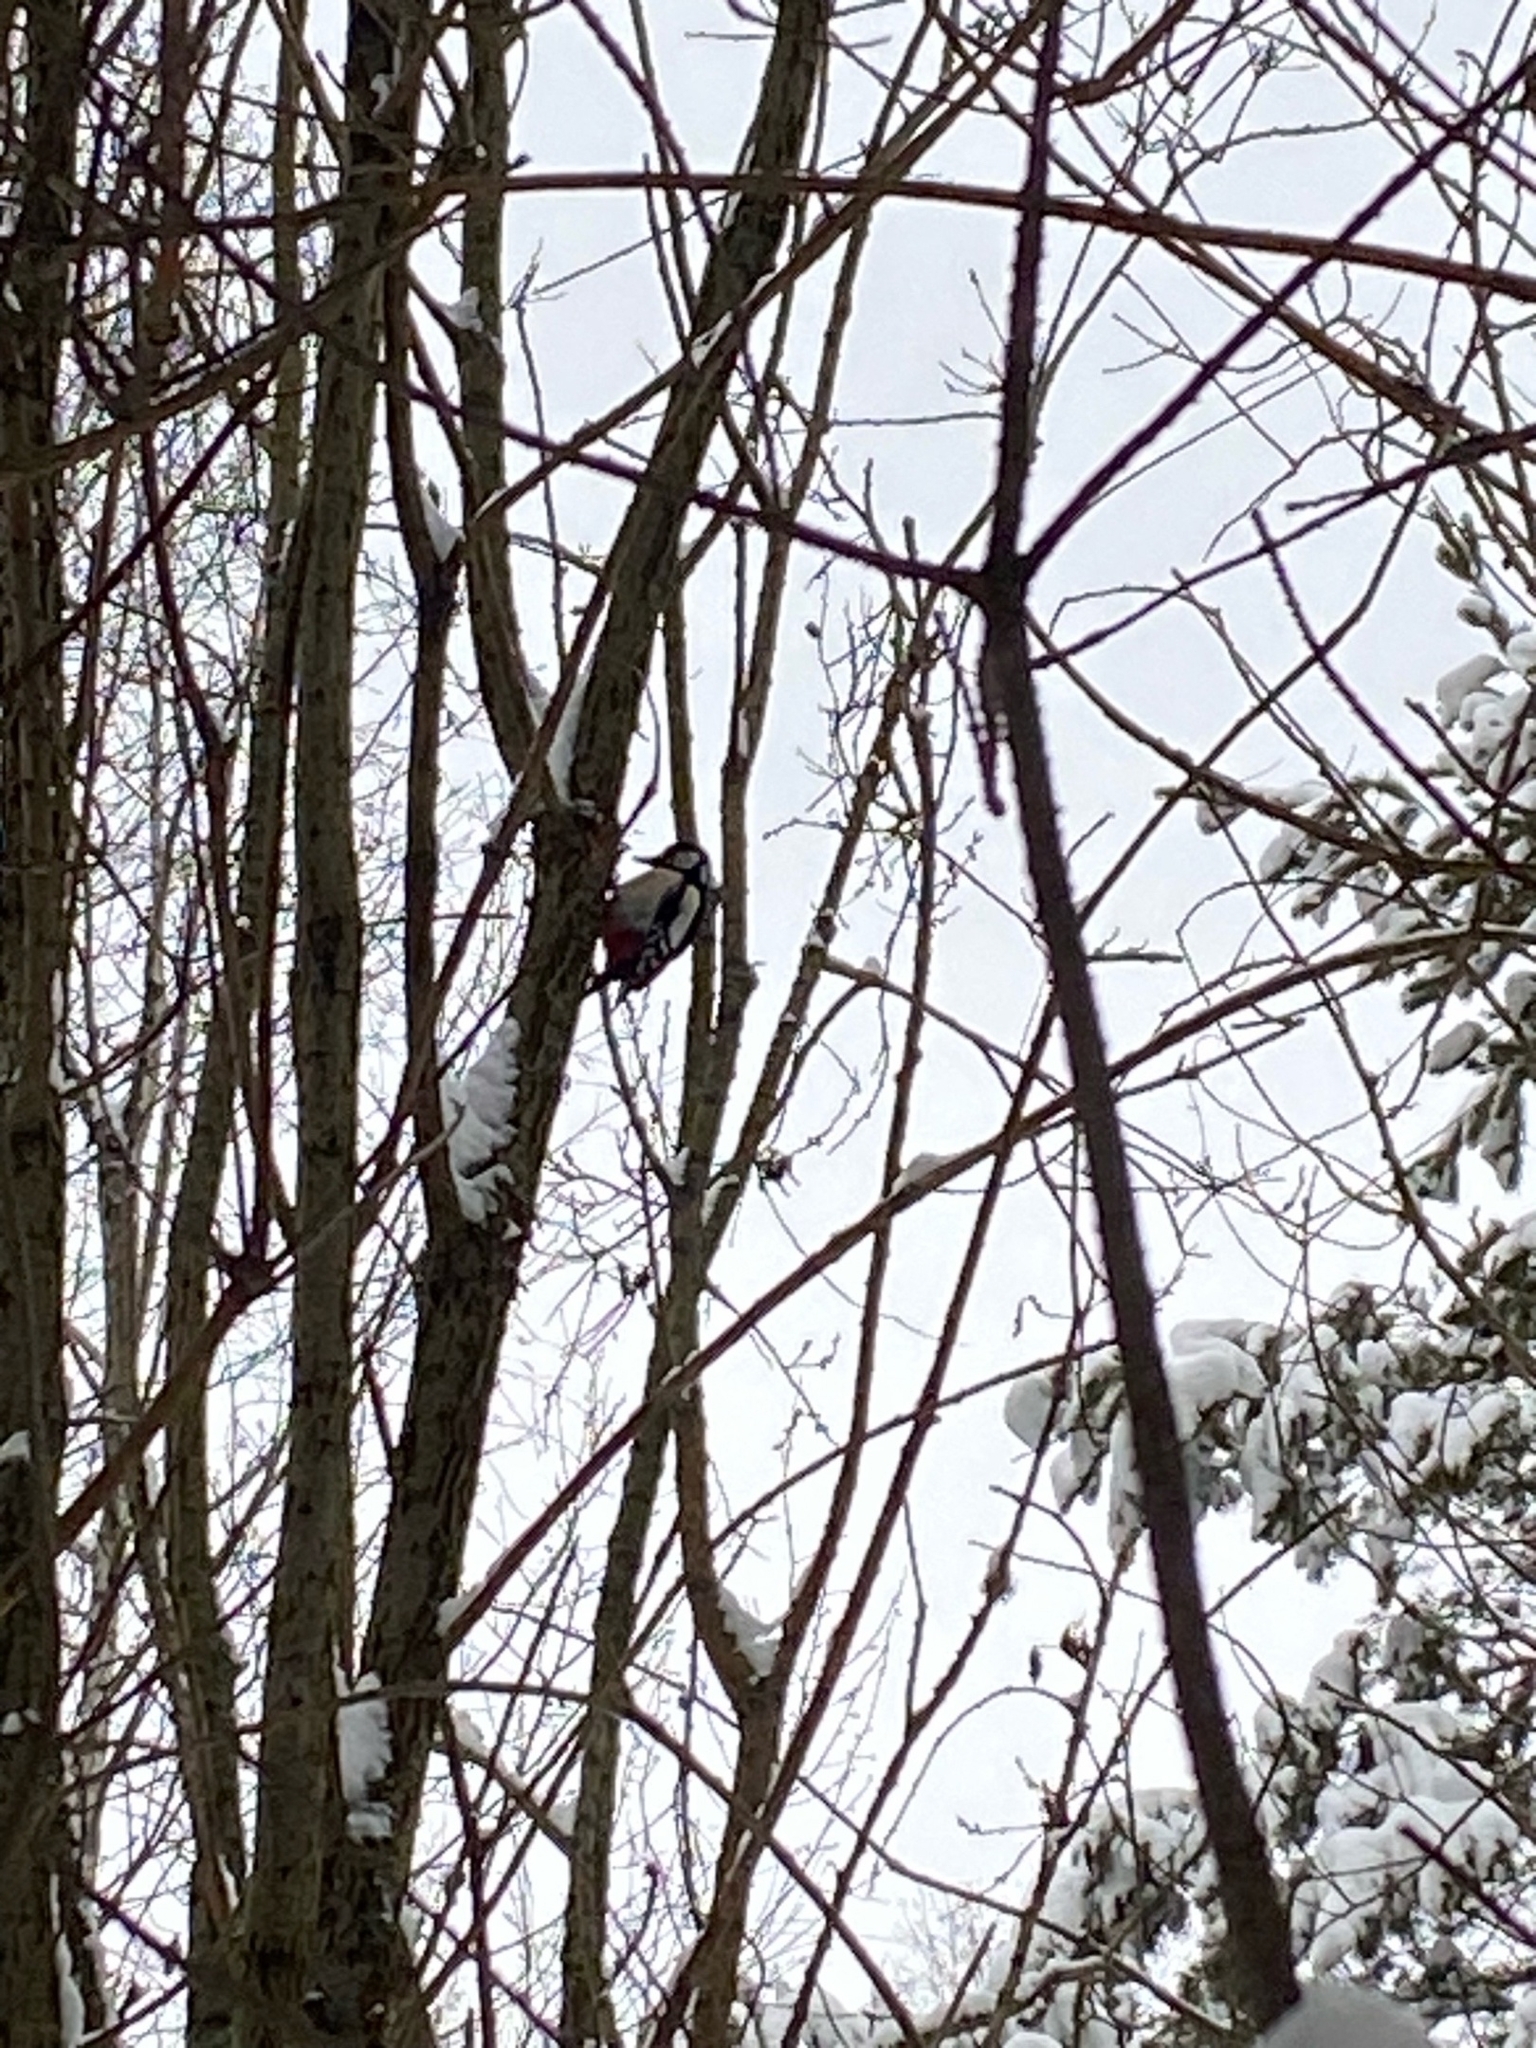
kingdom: Animalia
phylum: Chordata
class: Aves
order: Piciformes
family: Picidae
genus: Dendrocopos
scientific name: Dendrocopos major
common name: Great spotted woodpecker
